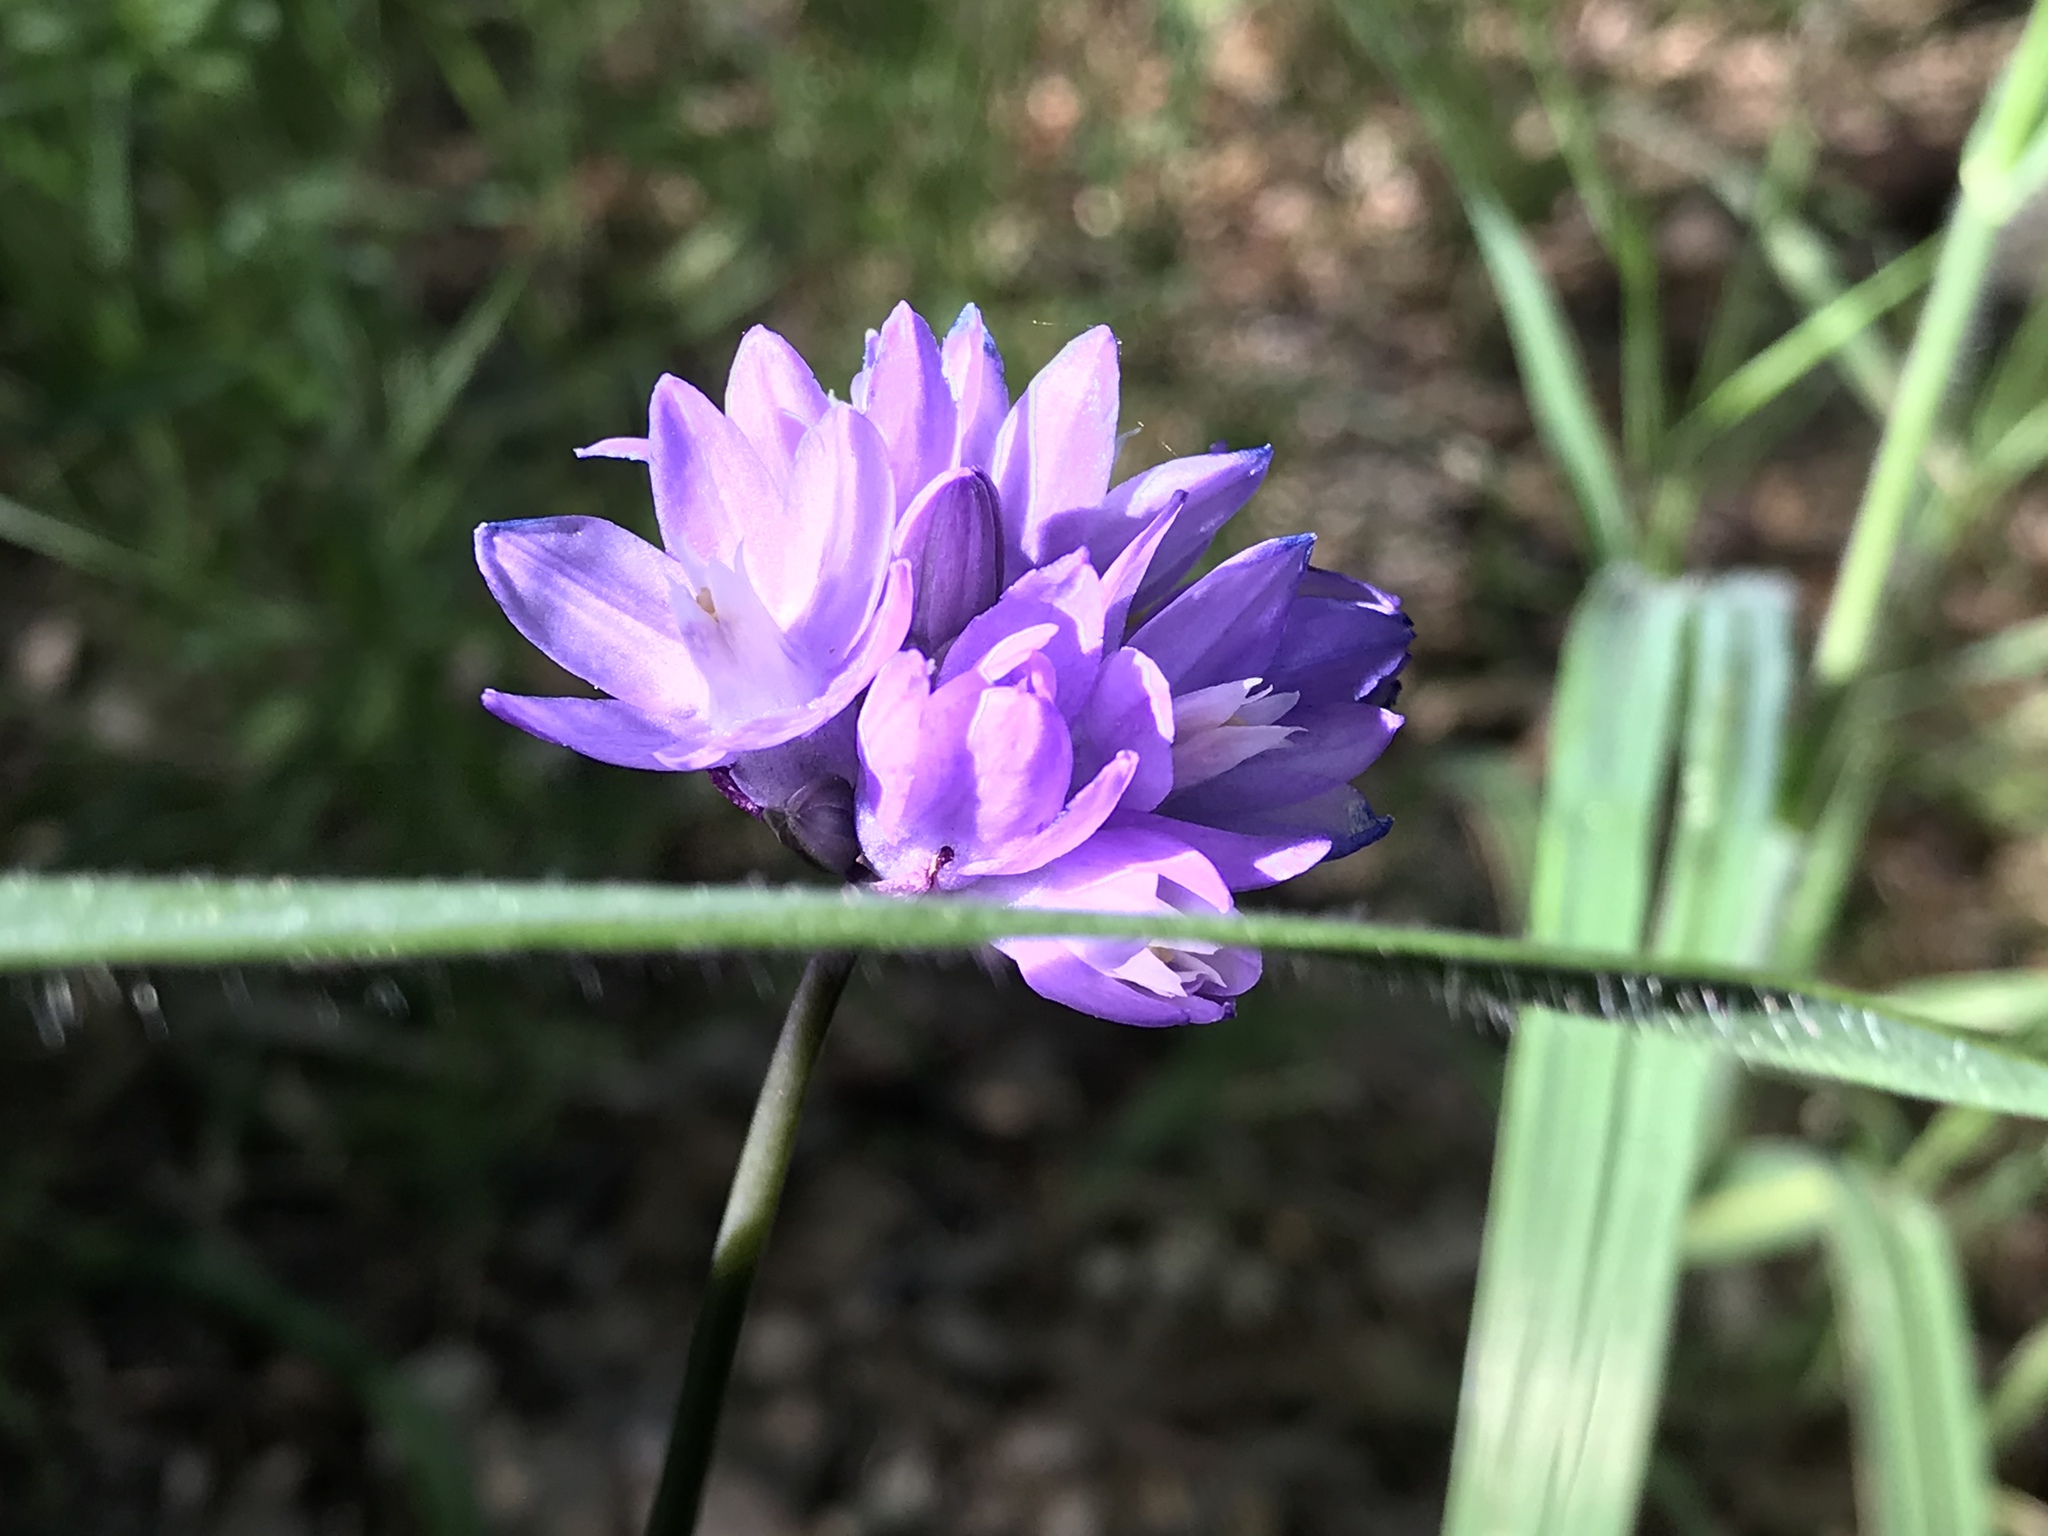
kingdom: Plantae
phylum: Tracheophyta
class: Liliopsida
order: Asparagales
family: Asparagaceae
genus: Dipterostemon
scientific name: Dipterostemon capitatus
